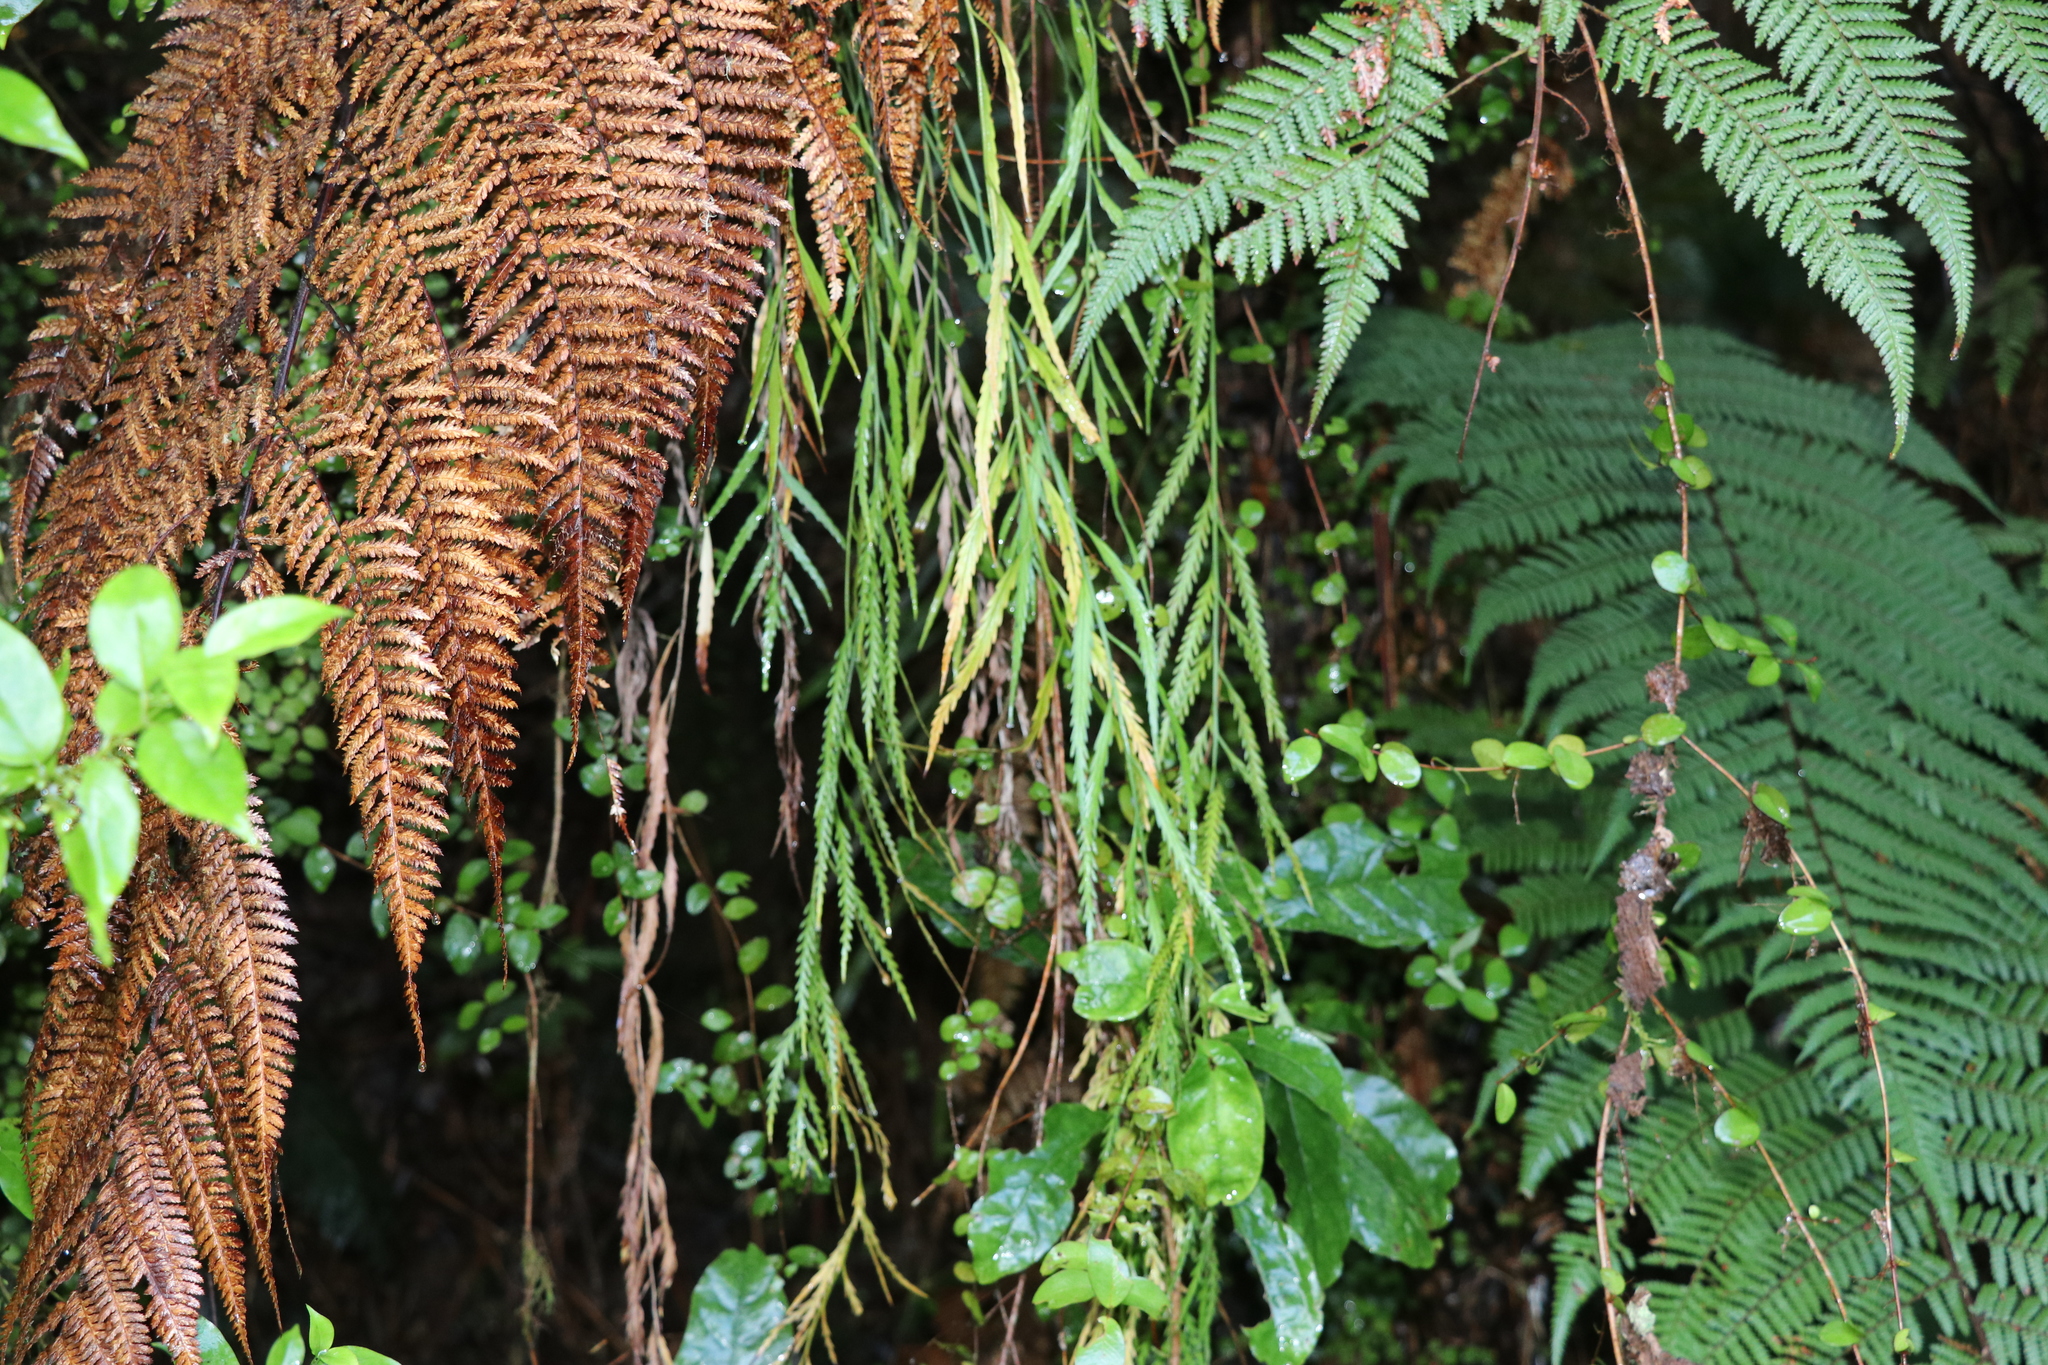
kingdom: Plantae
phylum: Tracheophyta
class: Polypodiopsida
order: Polypodiales
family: Aspleniaceae
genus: Asplenium
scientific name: Asplenium flaccidum
